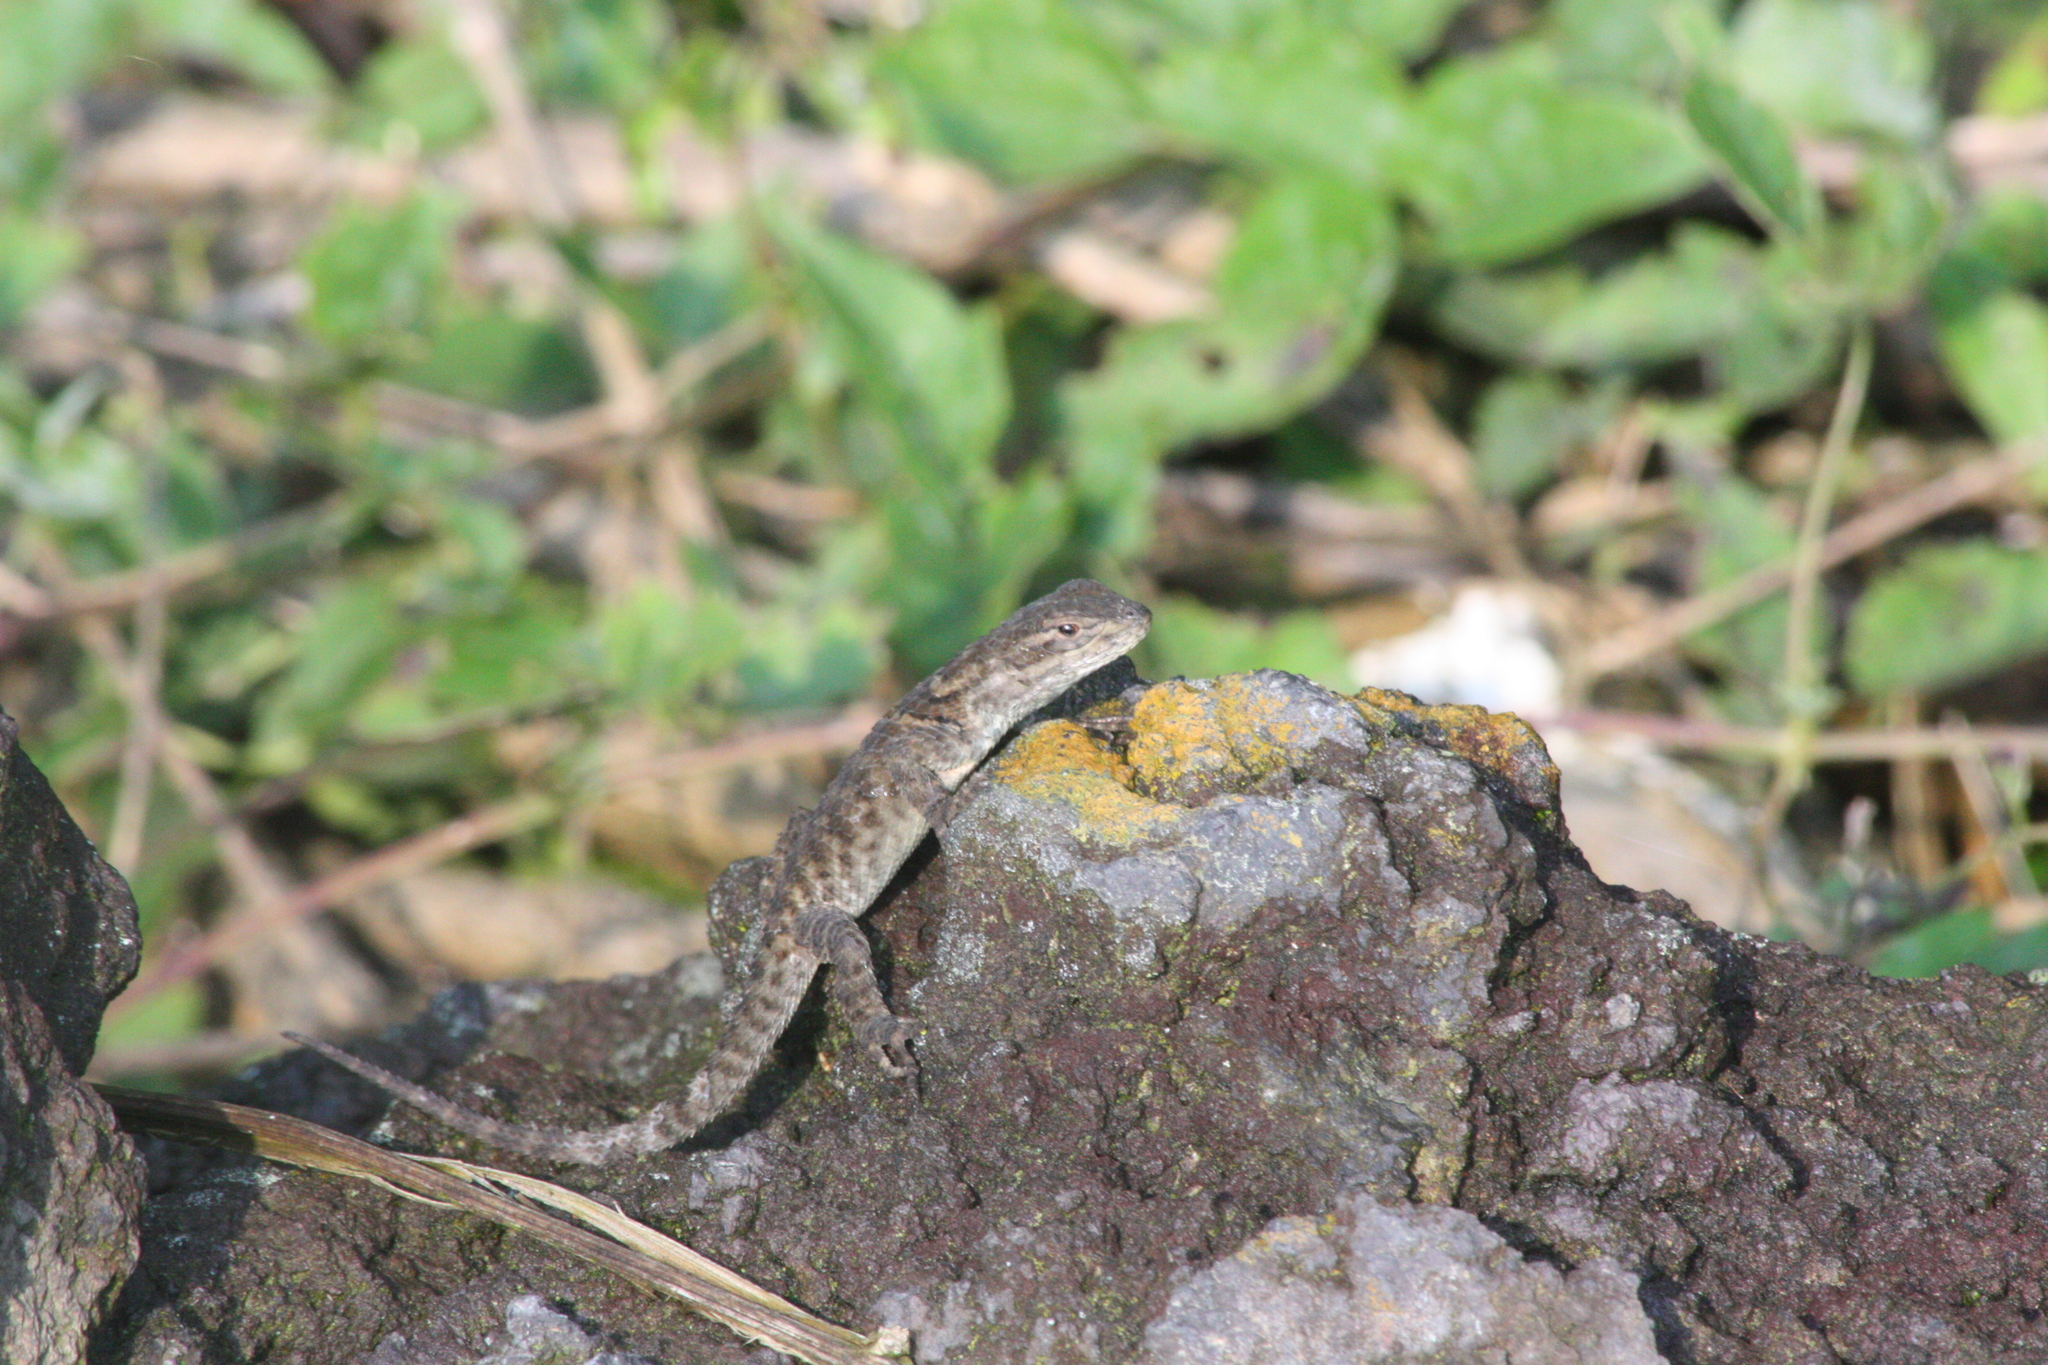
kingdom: Animalia
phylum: Chordata
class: Squamata
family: Phrynosomatidae
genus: Sceloporus
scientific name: Sceloporus torquatus
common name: Central plateau torquate lizard [melanogaster]
